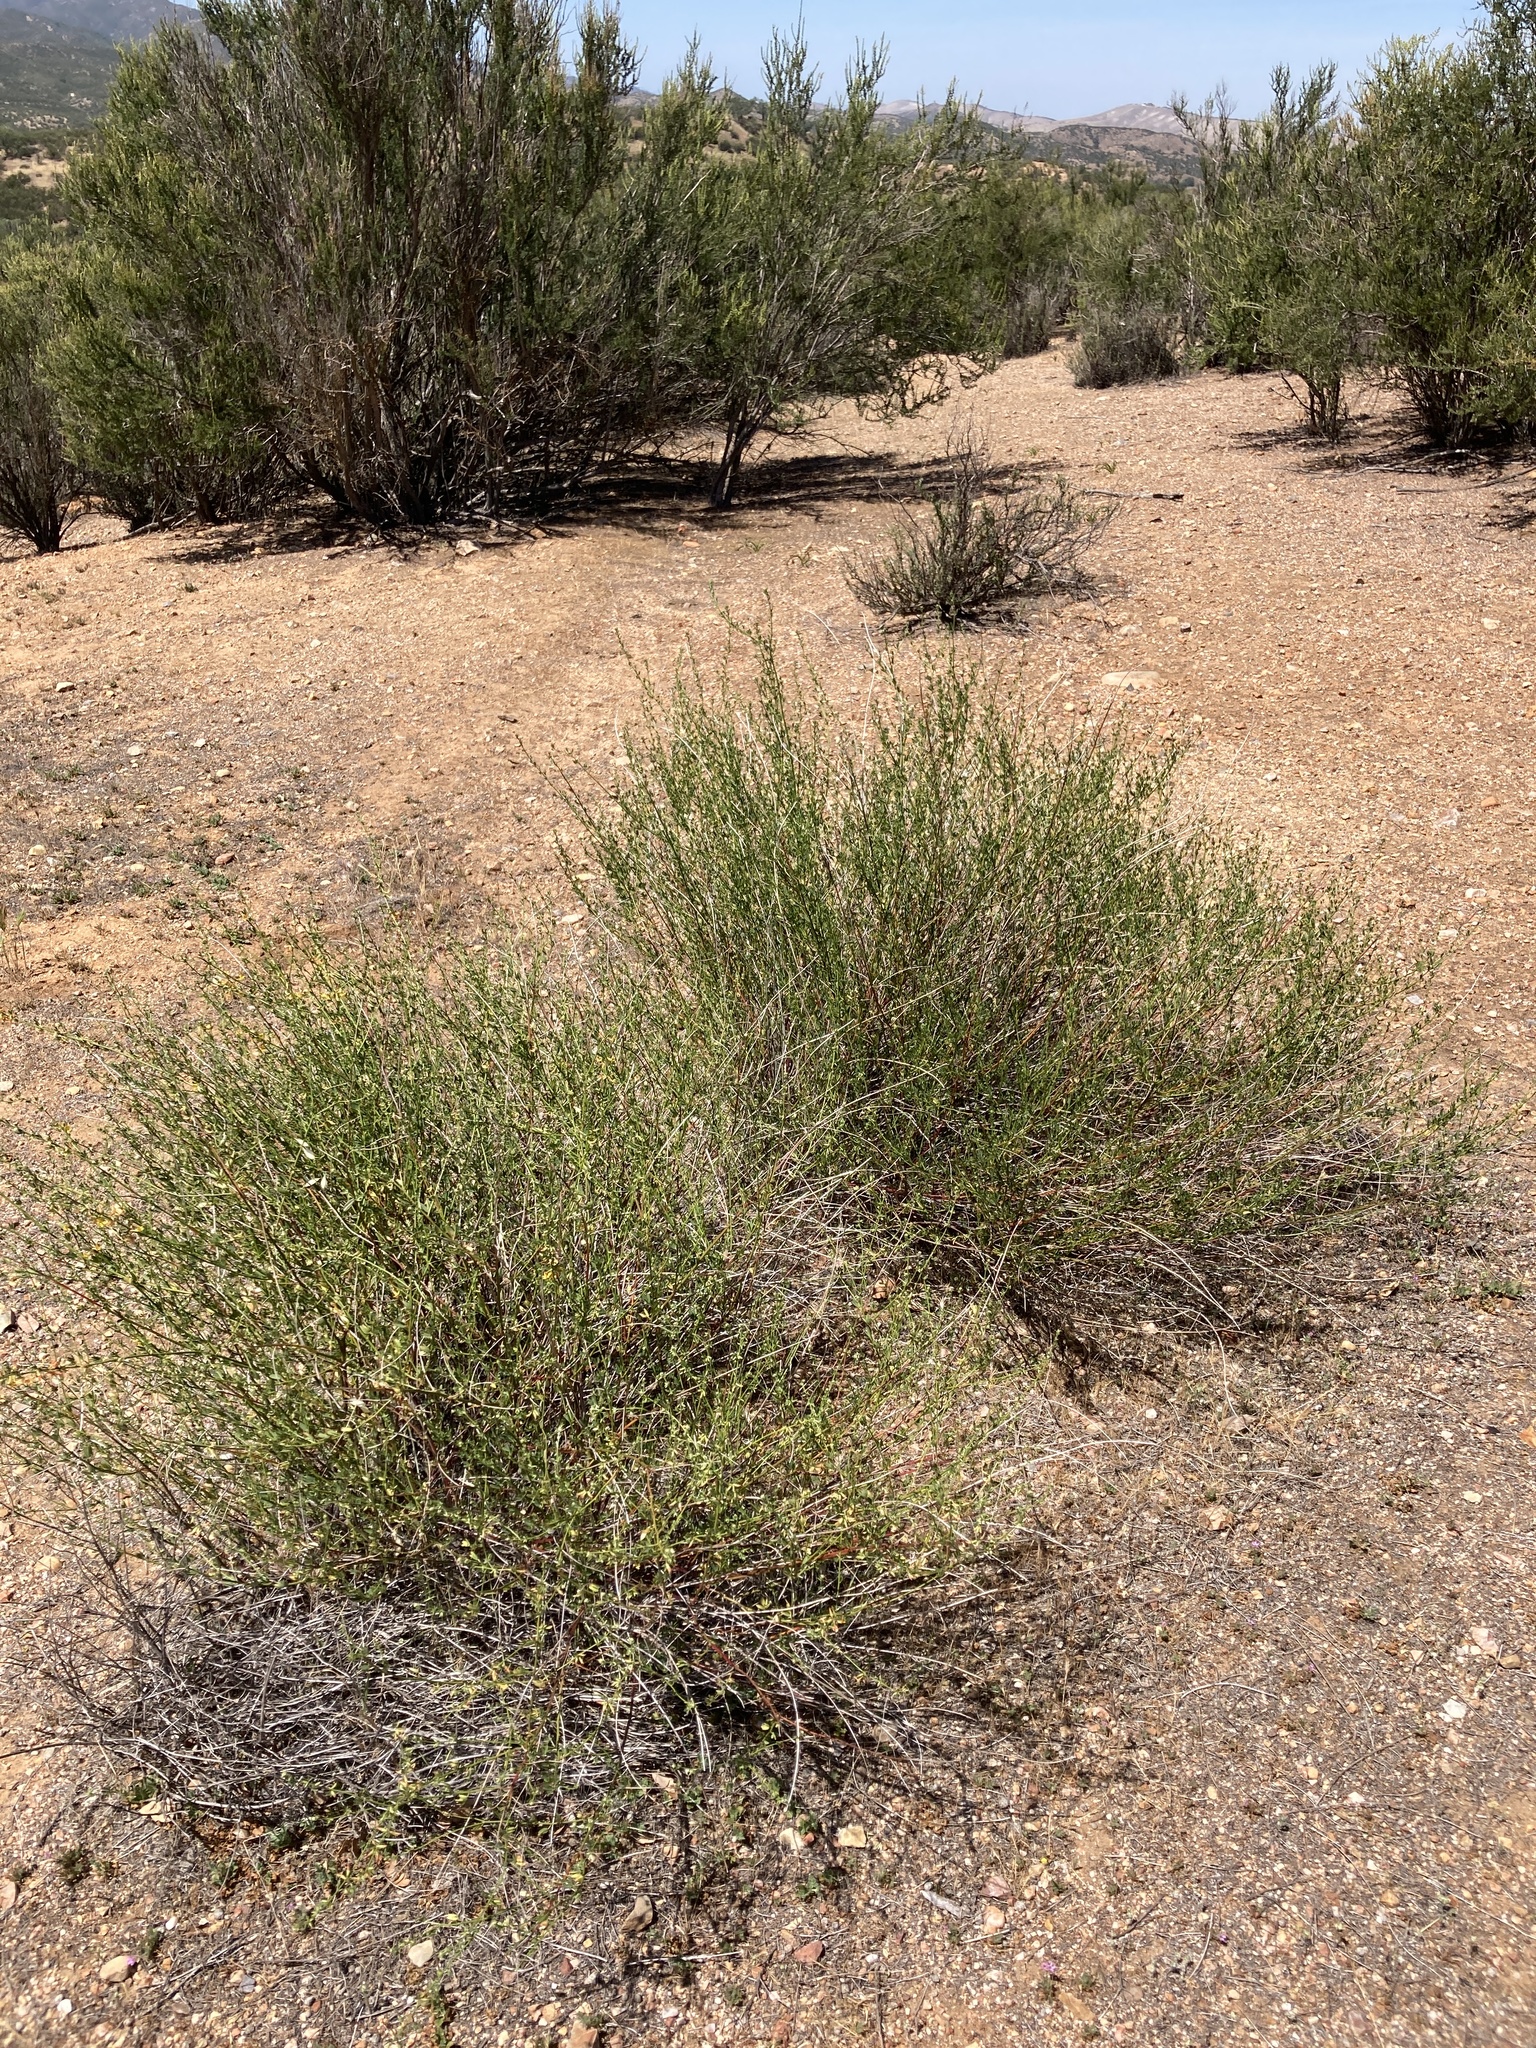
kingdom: Plantae
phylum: Tracheophyta
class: Magnoliopsida
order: Fabales
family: Fabaceae
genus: Acmispon
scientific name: Acmispon glaber
